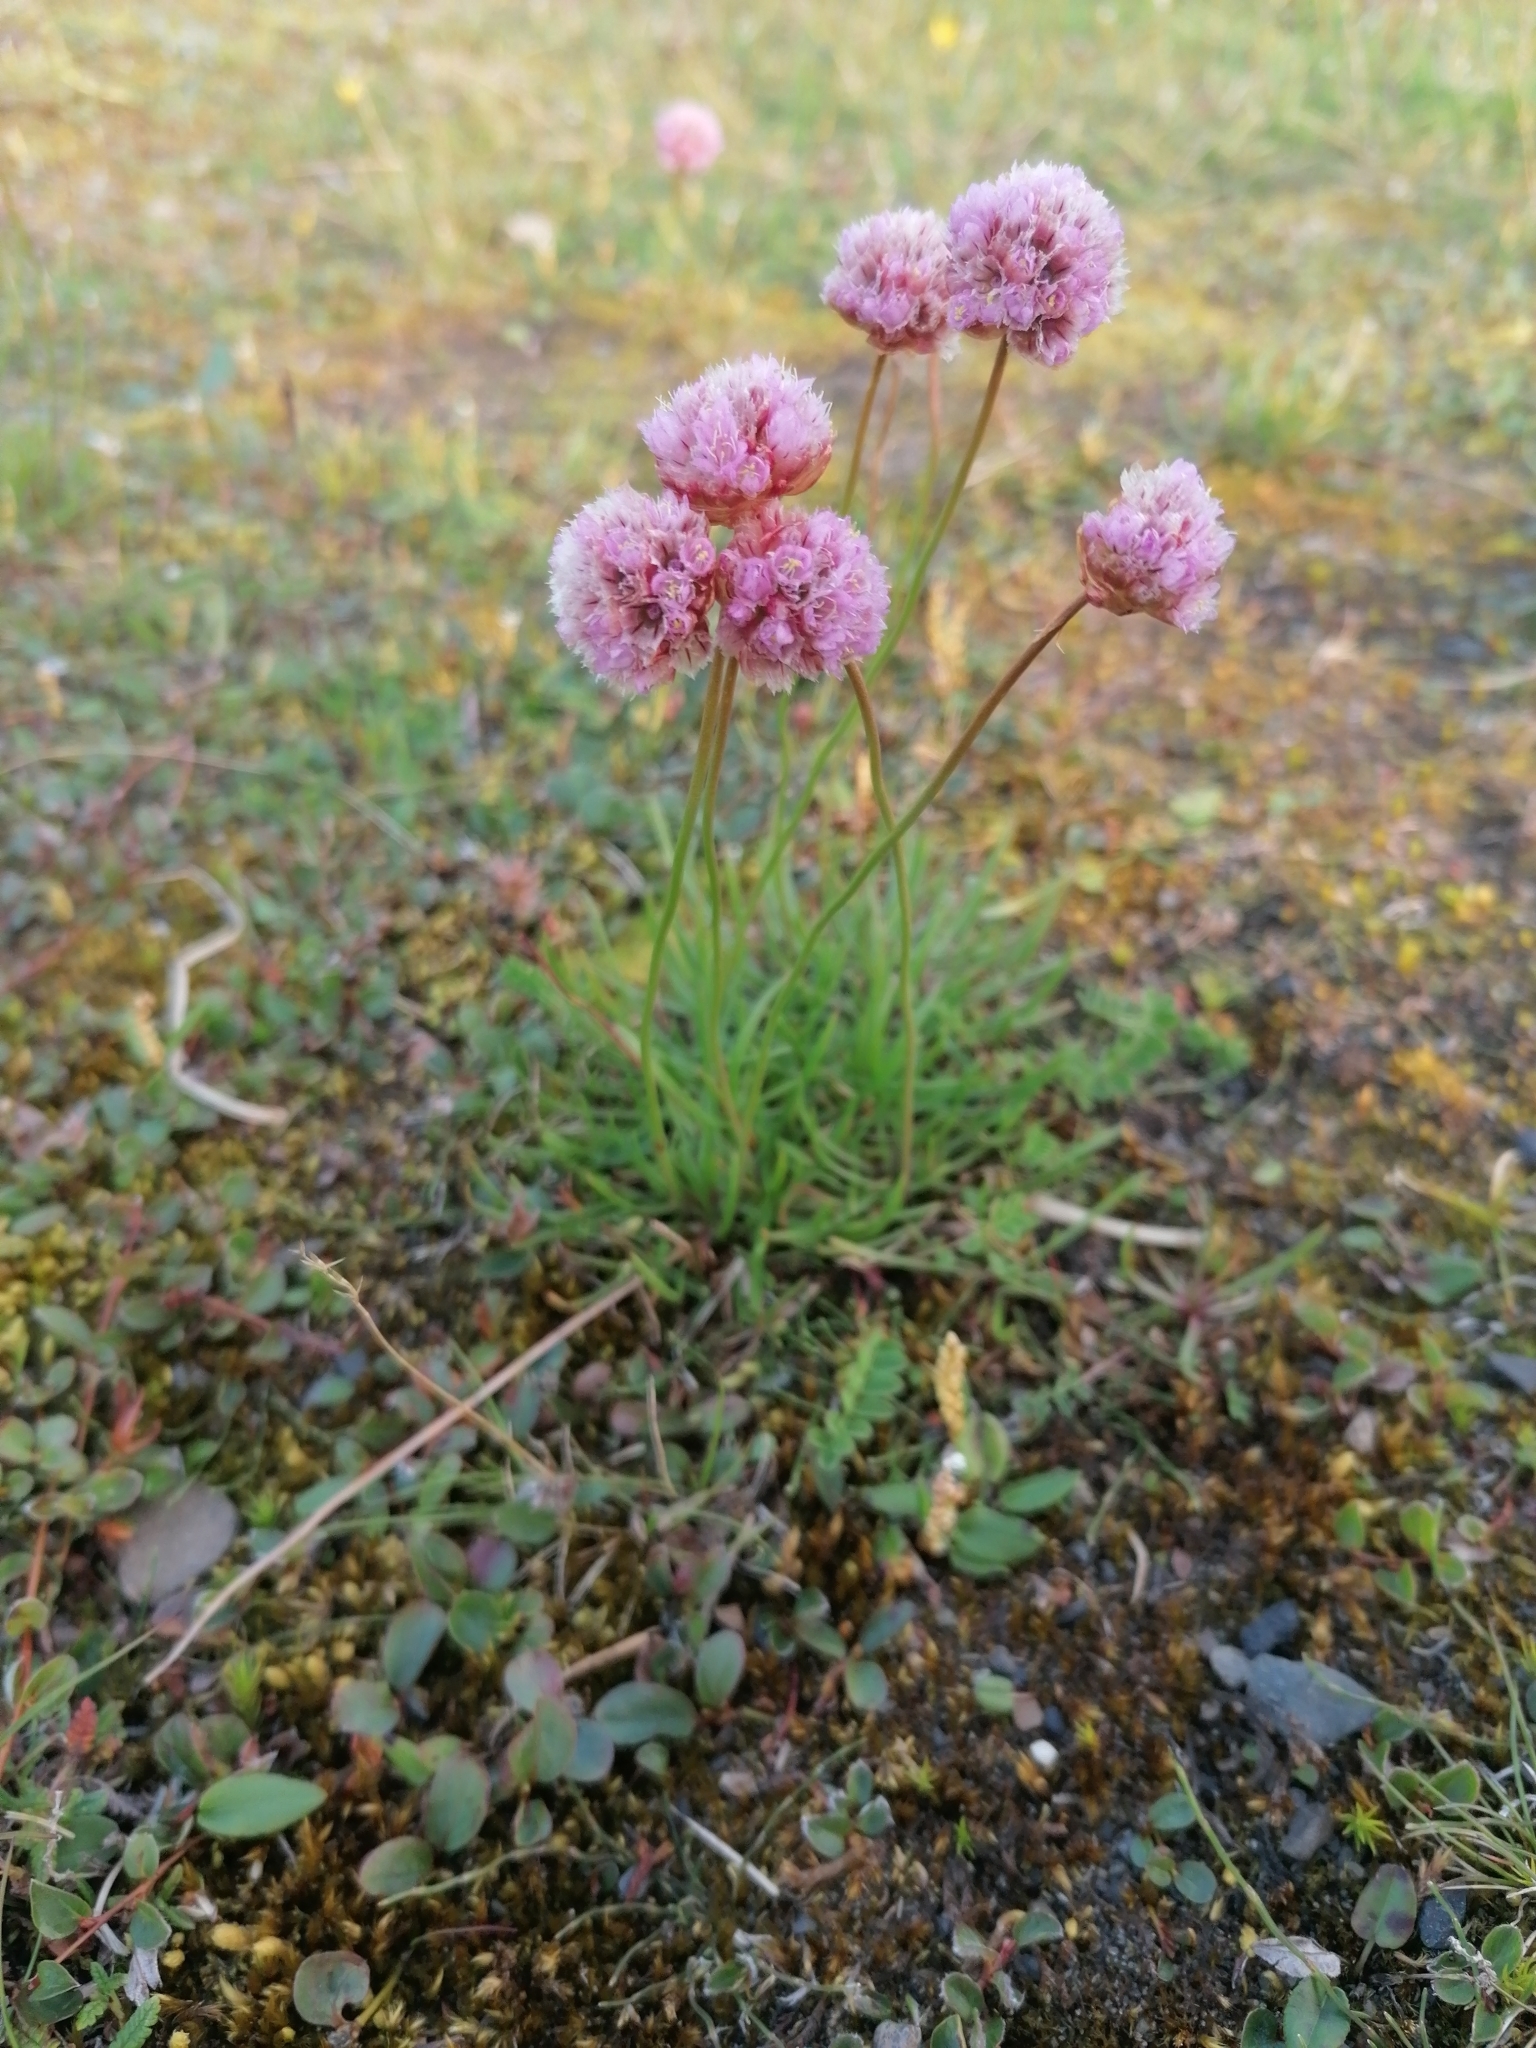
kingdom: Plantae
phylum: Tracheophyta
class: Magnoliopsida
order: Caryophyllales
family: Plumbaginaceae
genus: Armeria
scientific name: Armeria maritima
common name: Thrift
